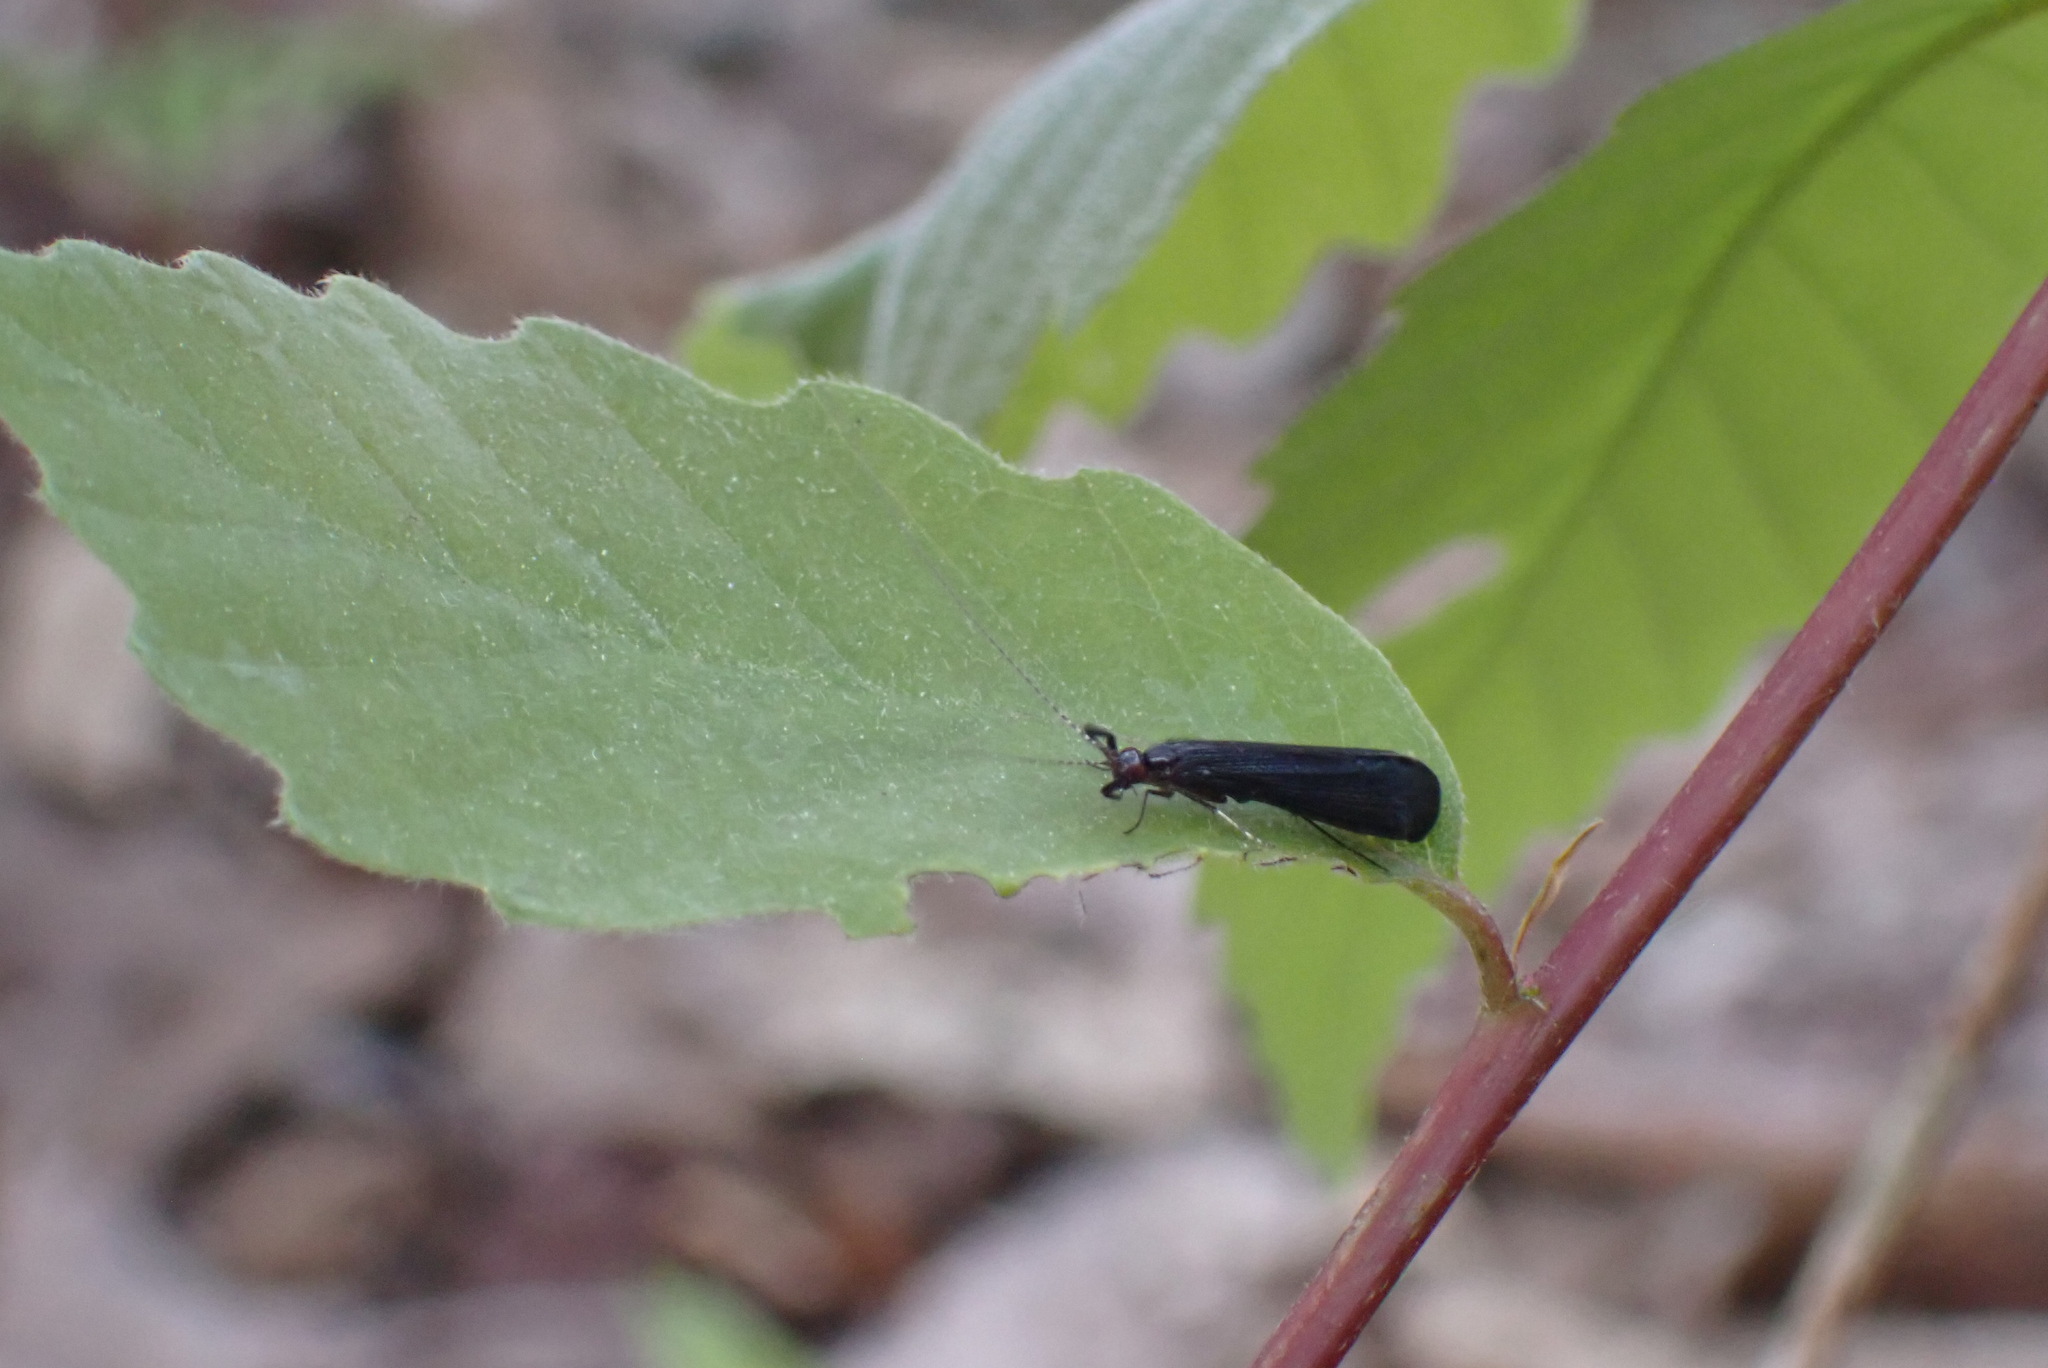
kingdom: Animalia
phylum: Arthropoda
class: Insecta
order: Trichoptera
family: Leptoceridae
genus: Mystacides
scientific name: Mystacides sepulchralis
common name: Black dancer caddisfly
